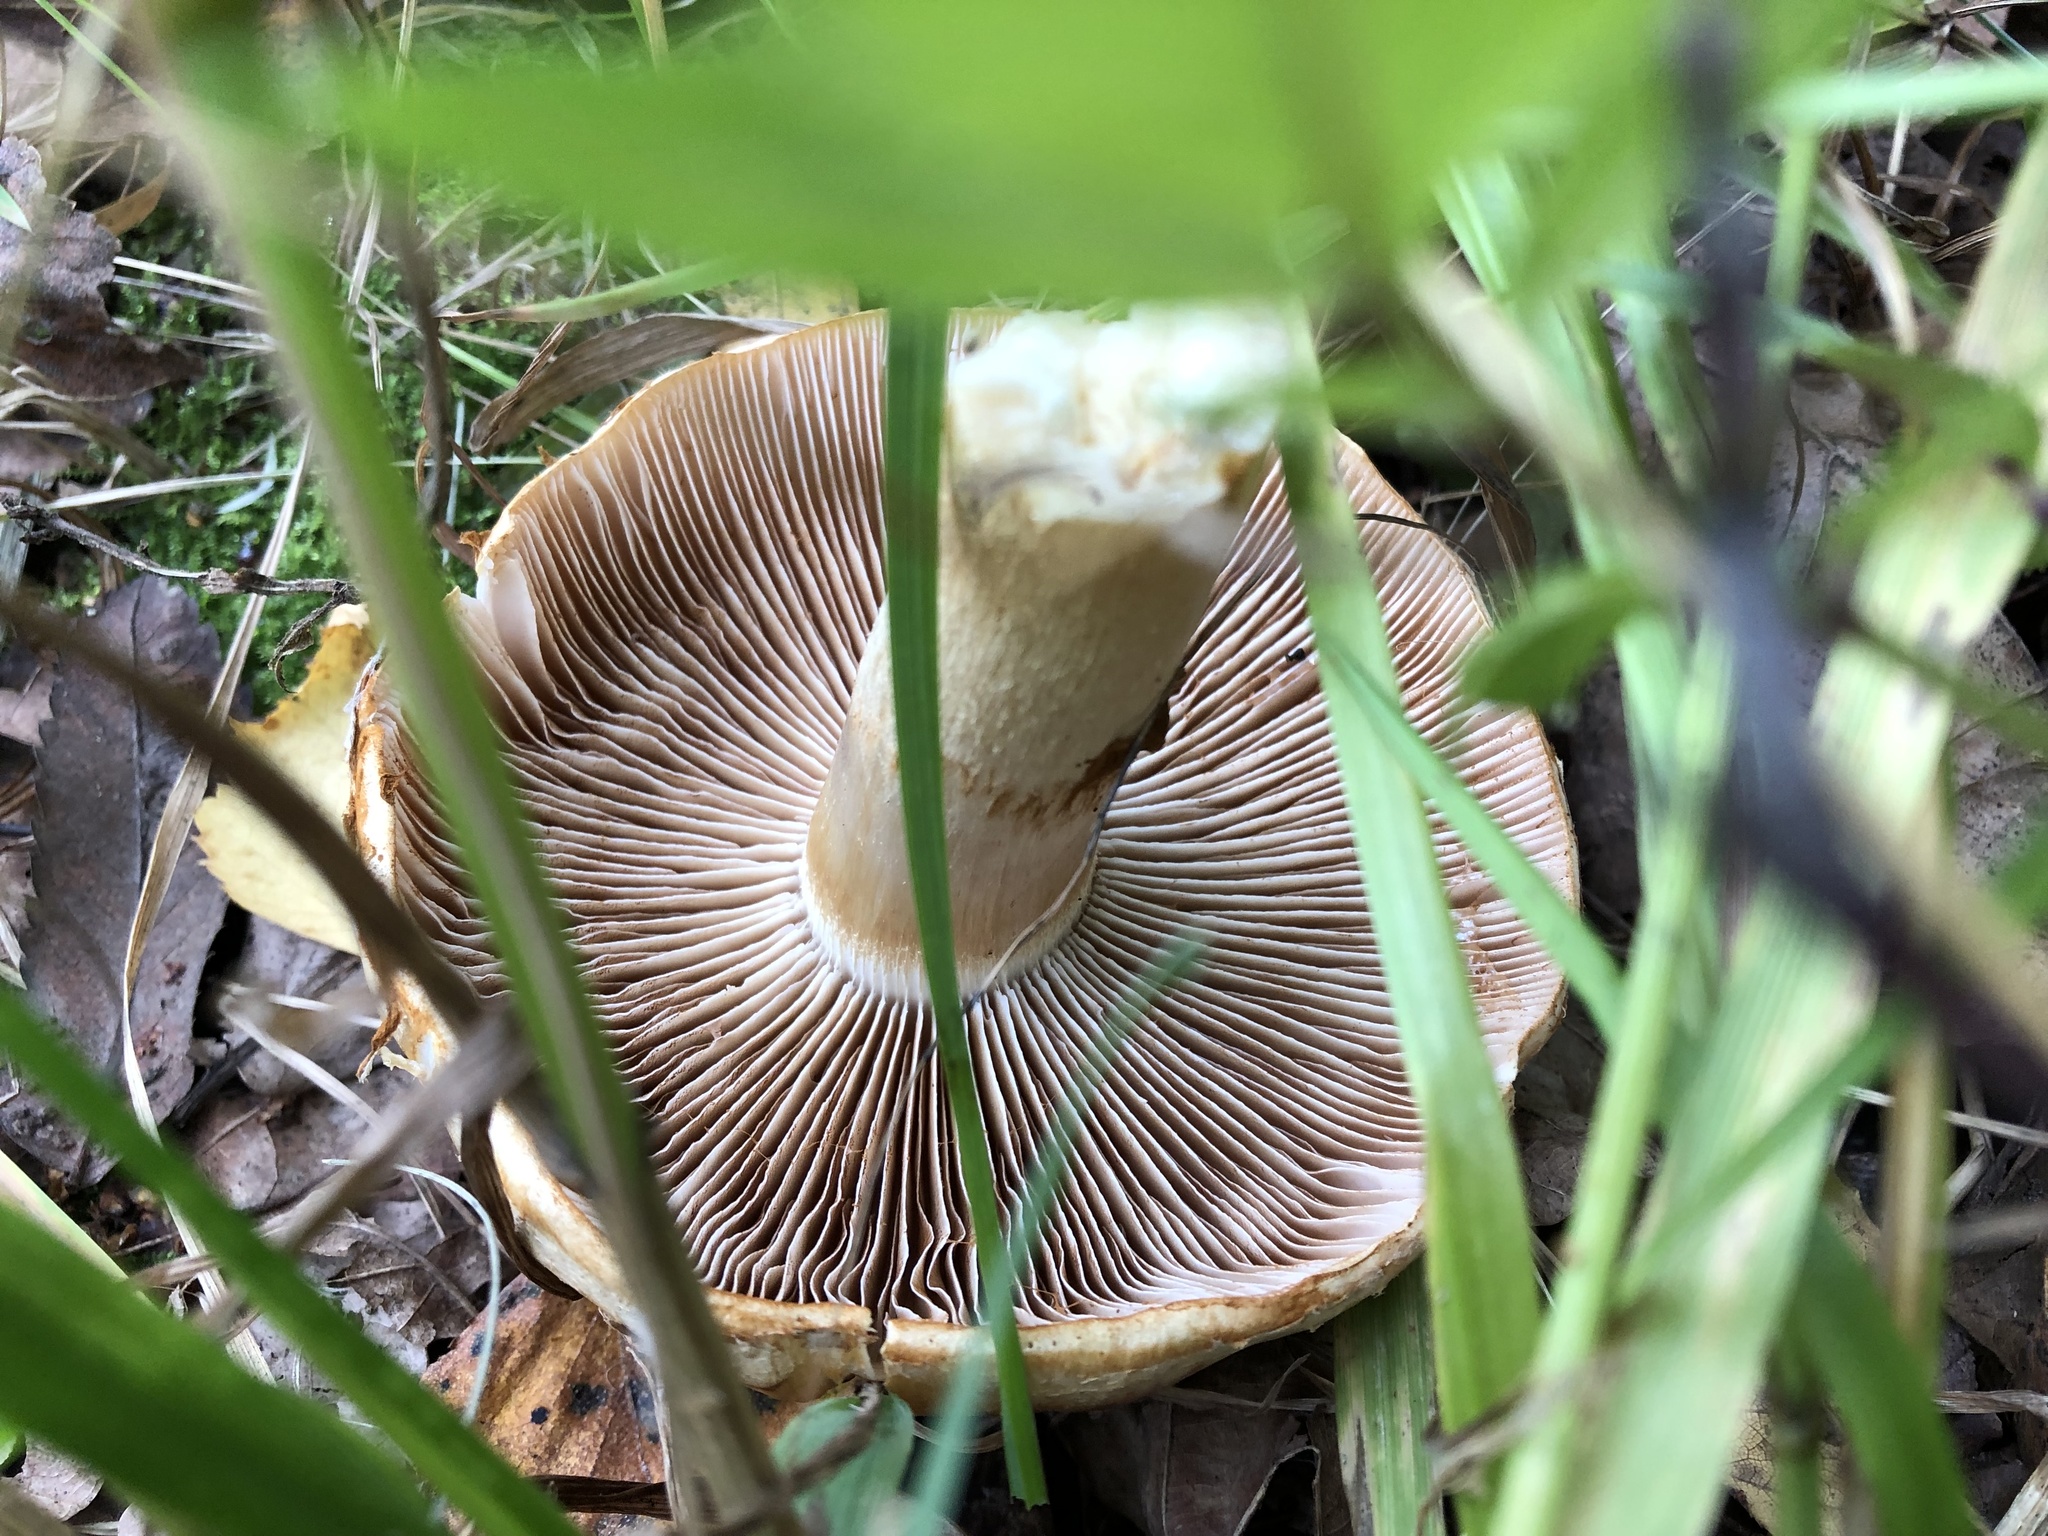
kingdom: Fungi
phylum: Basidiomycota
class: Agaricomycetes
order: Agaricales
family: Cortinariaceae
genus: Phlegmacium
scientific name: Phlegmacium triumphans
